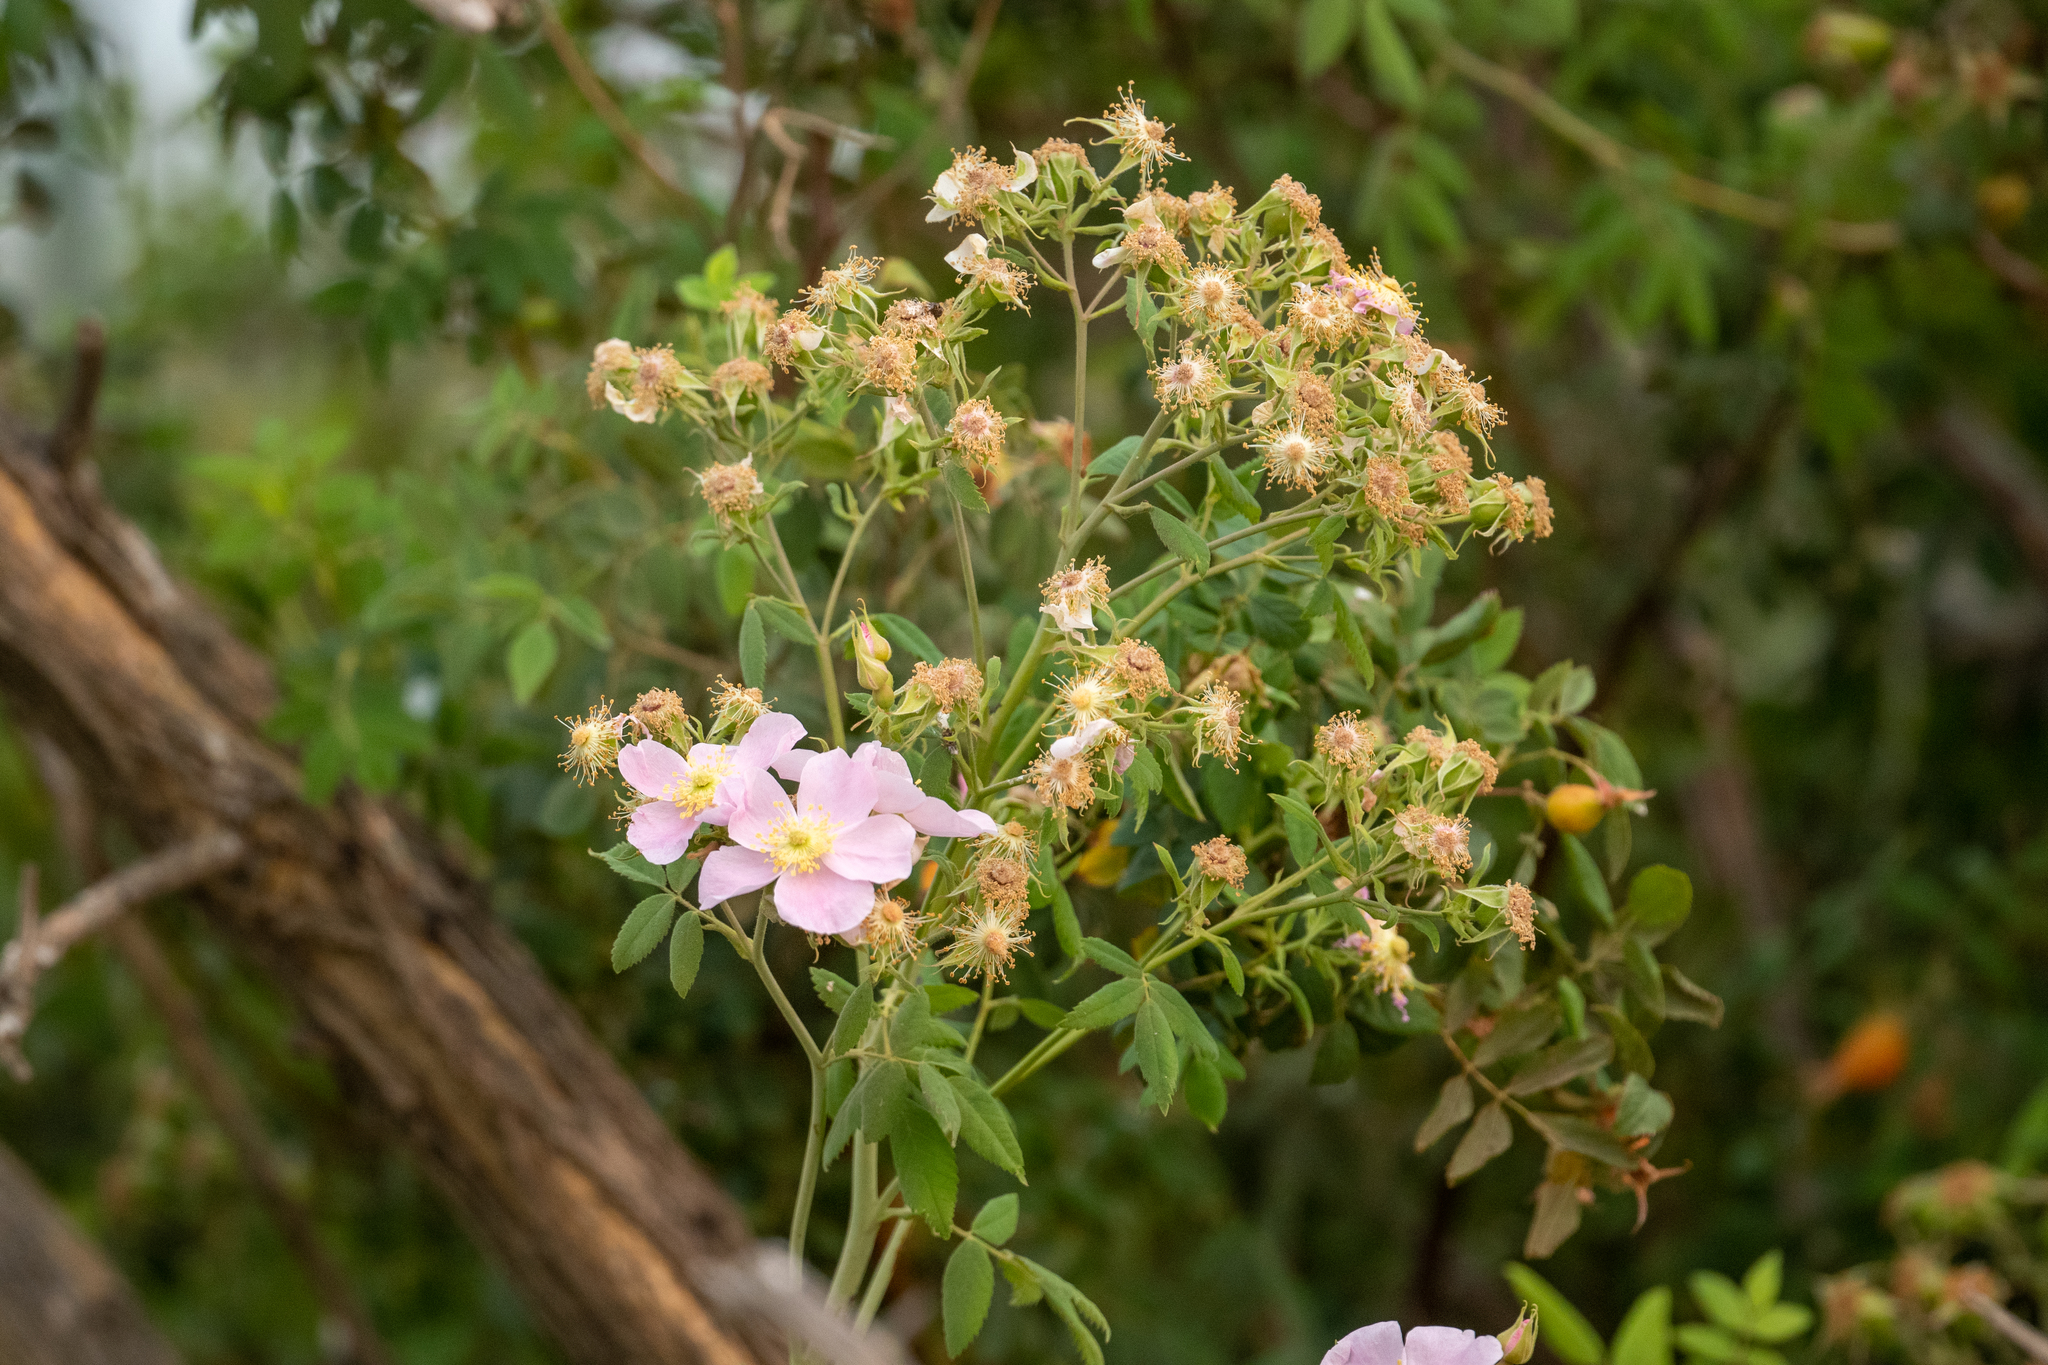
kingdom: Plantae
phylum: Tracheophyta
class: Magnoliopsida
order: Rosales
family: Rosaceae
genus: Rosa
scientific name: Rosa californica
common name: California rose
